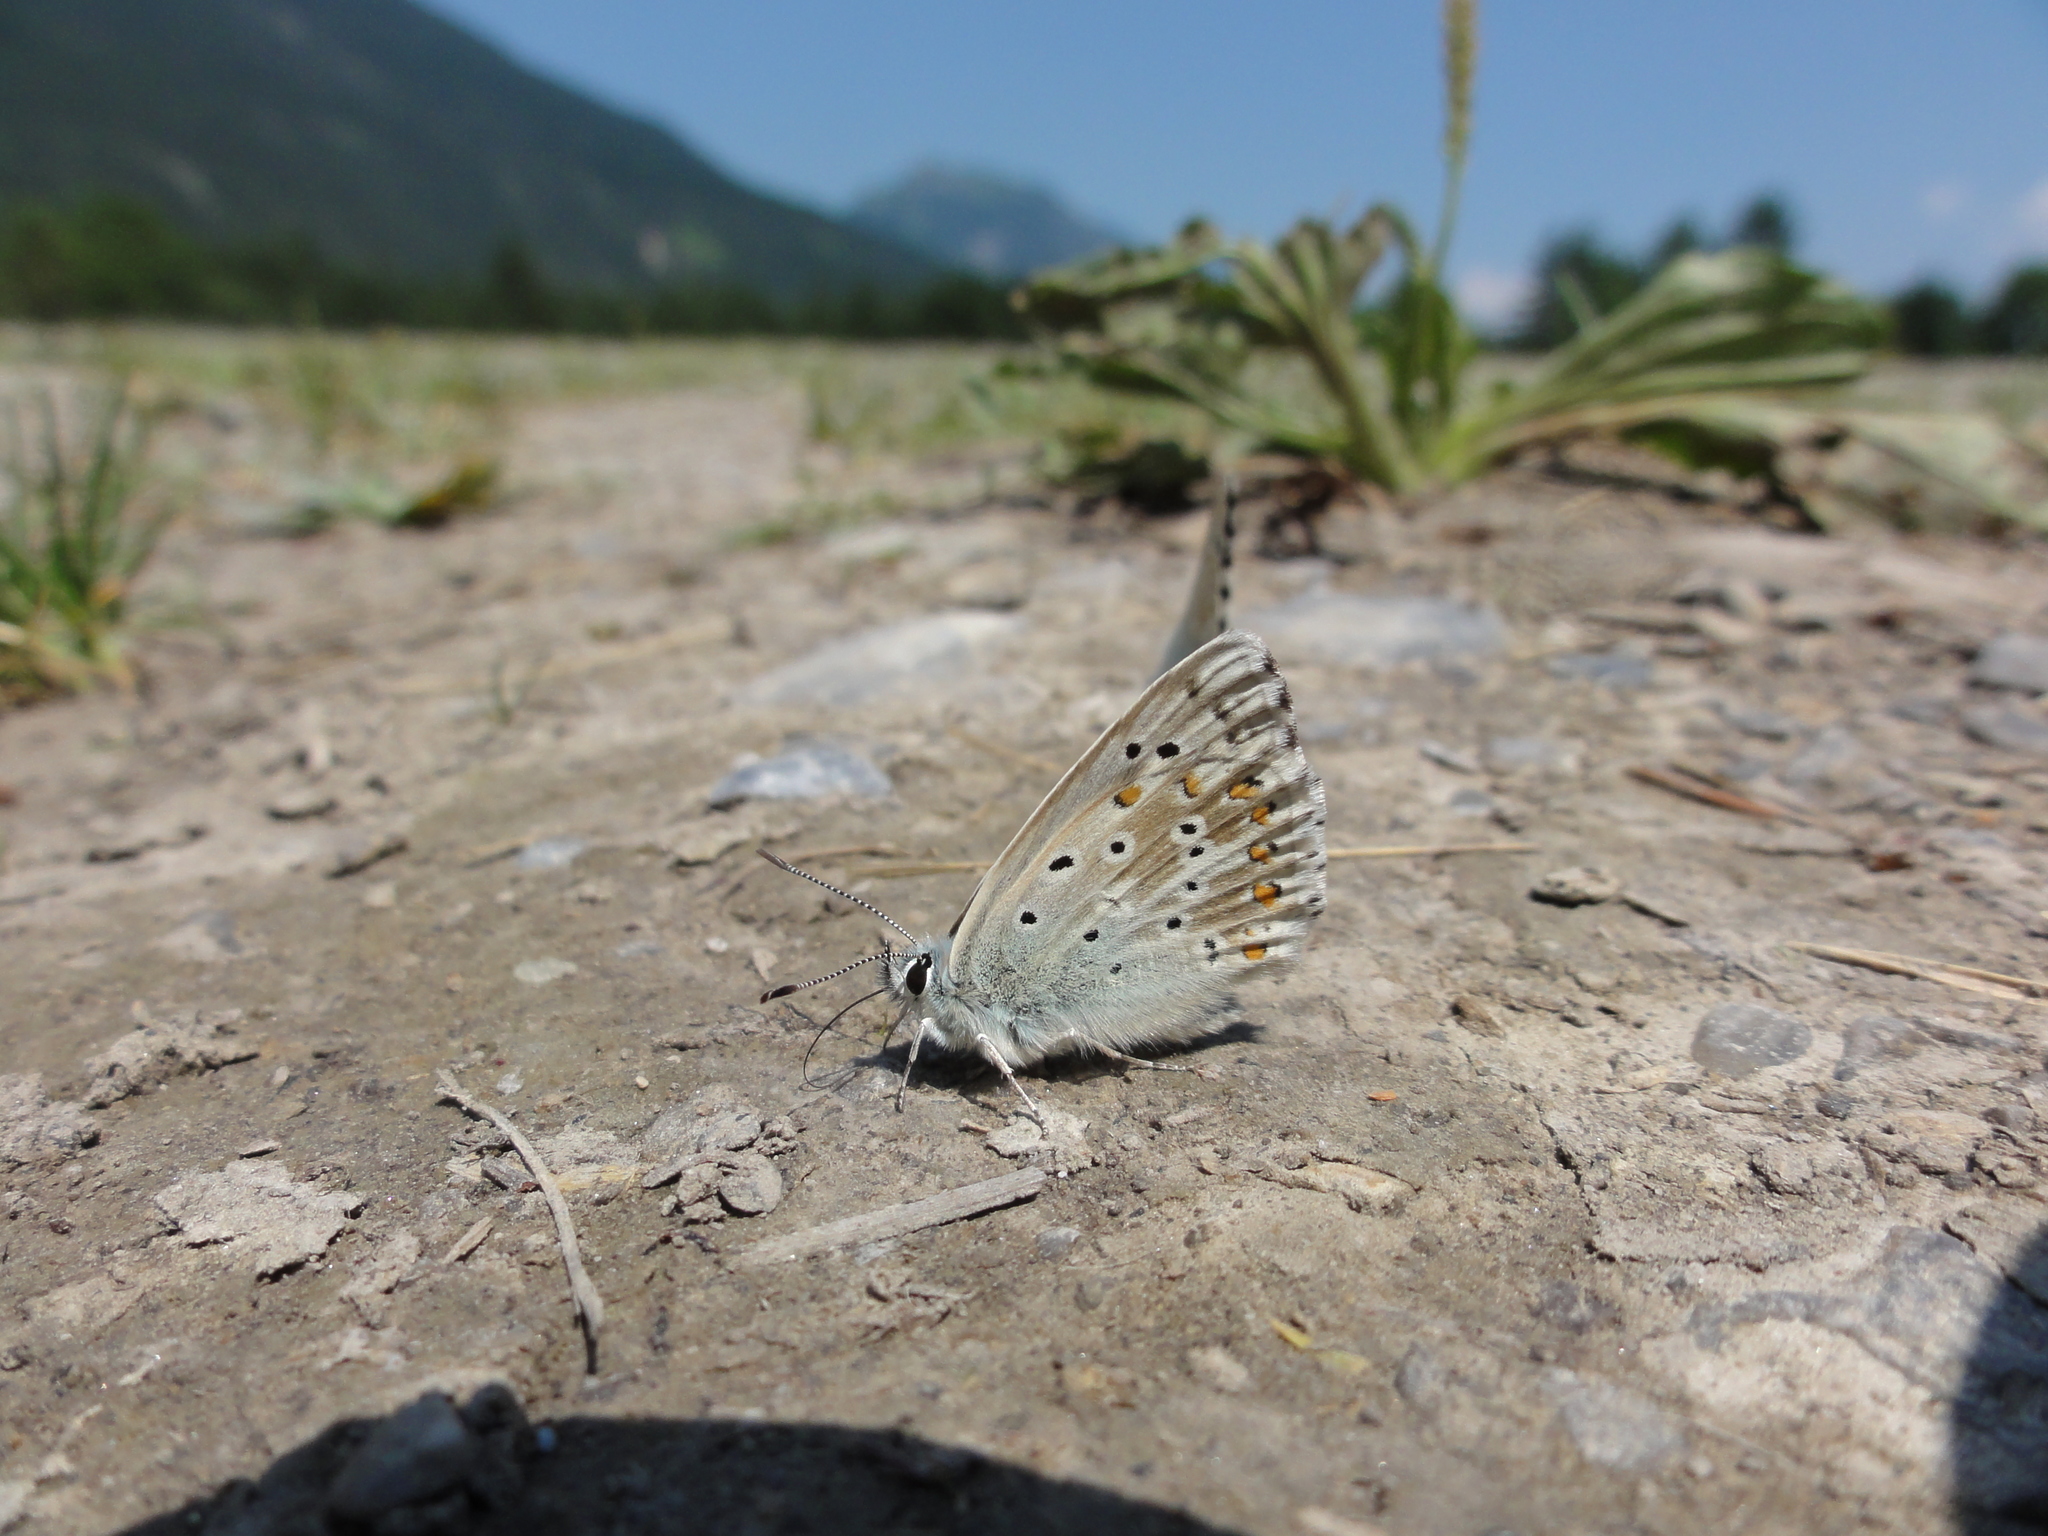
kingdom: Animalia
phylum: Arthropoda
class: Insecta
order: Lepidoptera
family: Lycaenidae
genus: Lysandra
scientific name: Lysandra coridon
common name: Chalkhill blue
